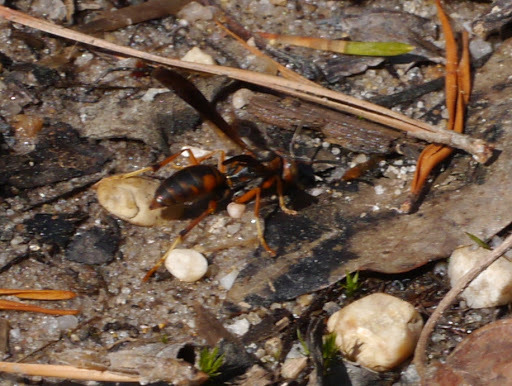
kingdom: Animalia
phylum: Arthropoda
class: Insecta
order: Hymenoptera
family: Eumenidae
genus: Polistes
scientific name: Polistes fuscatus
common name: Dark paper wasp
